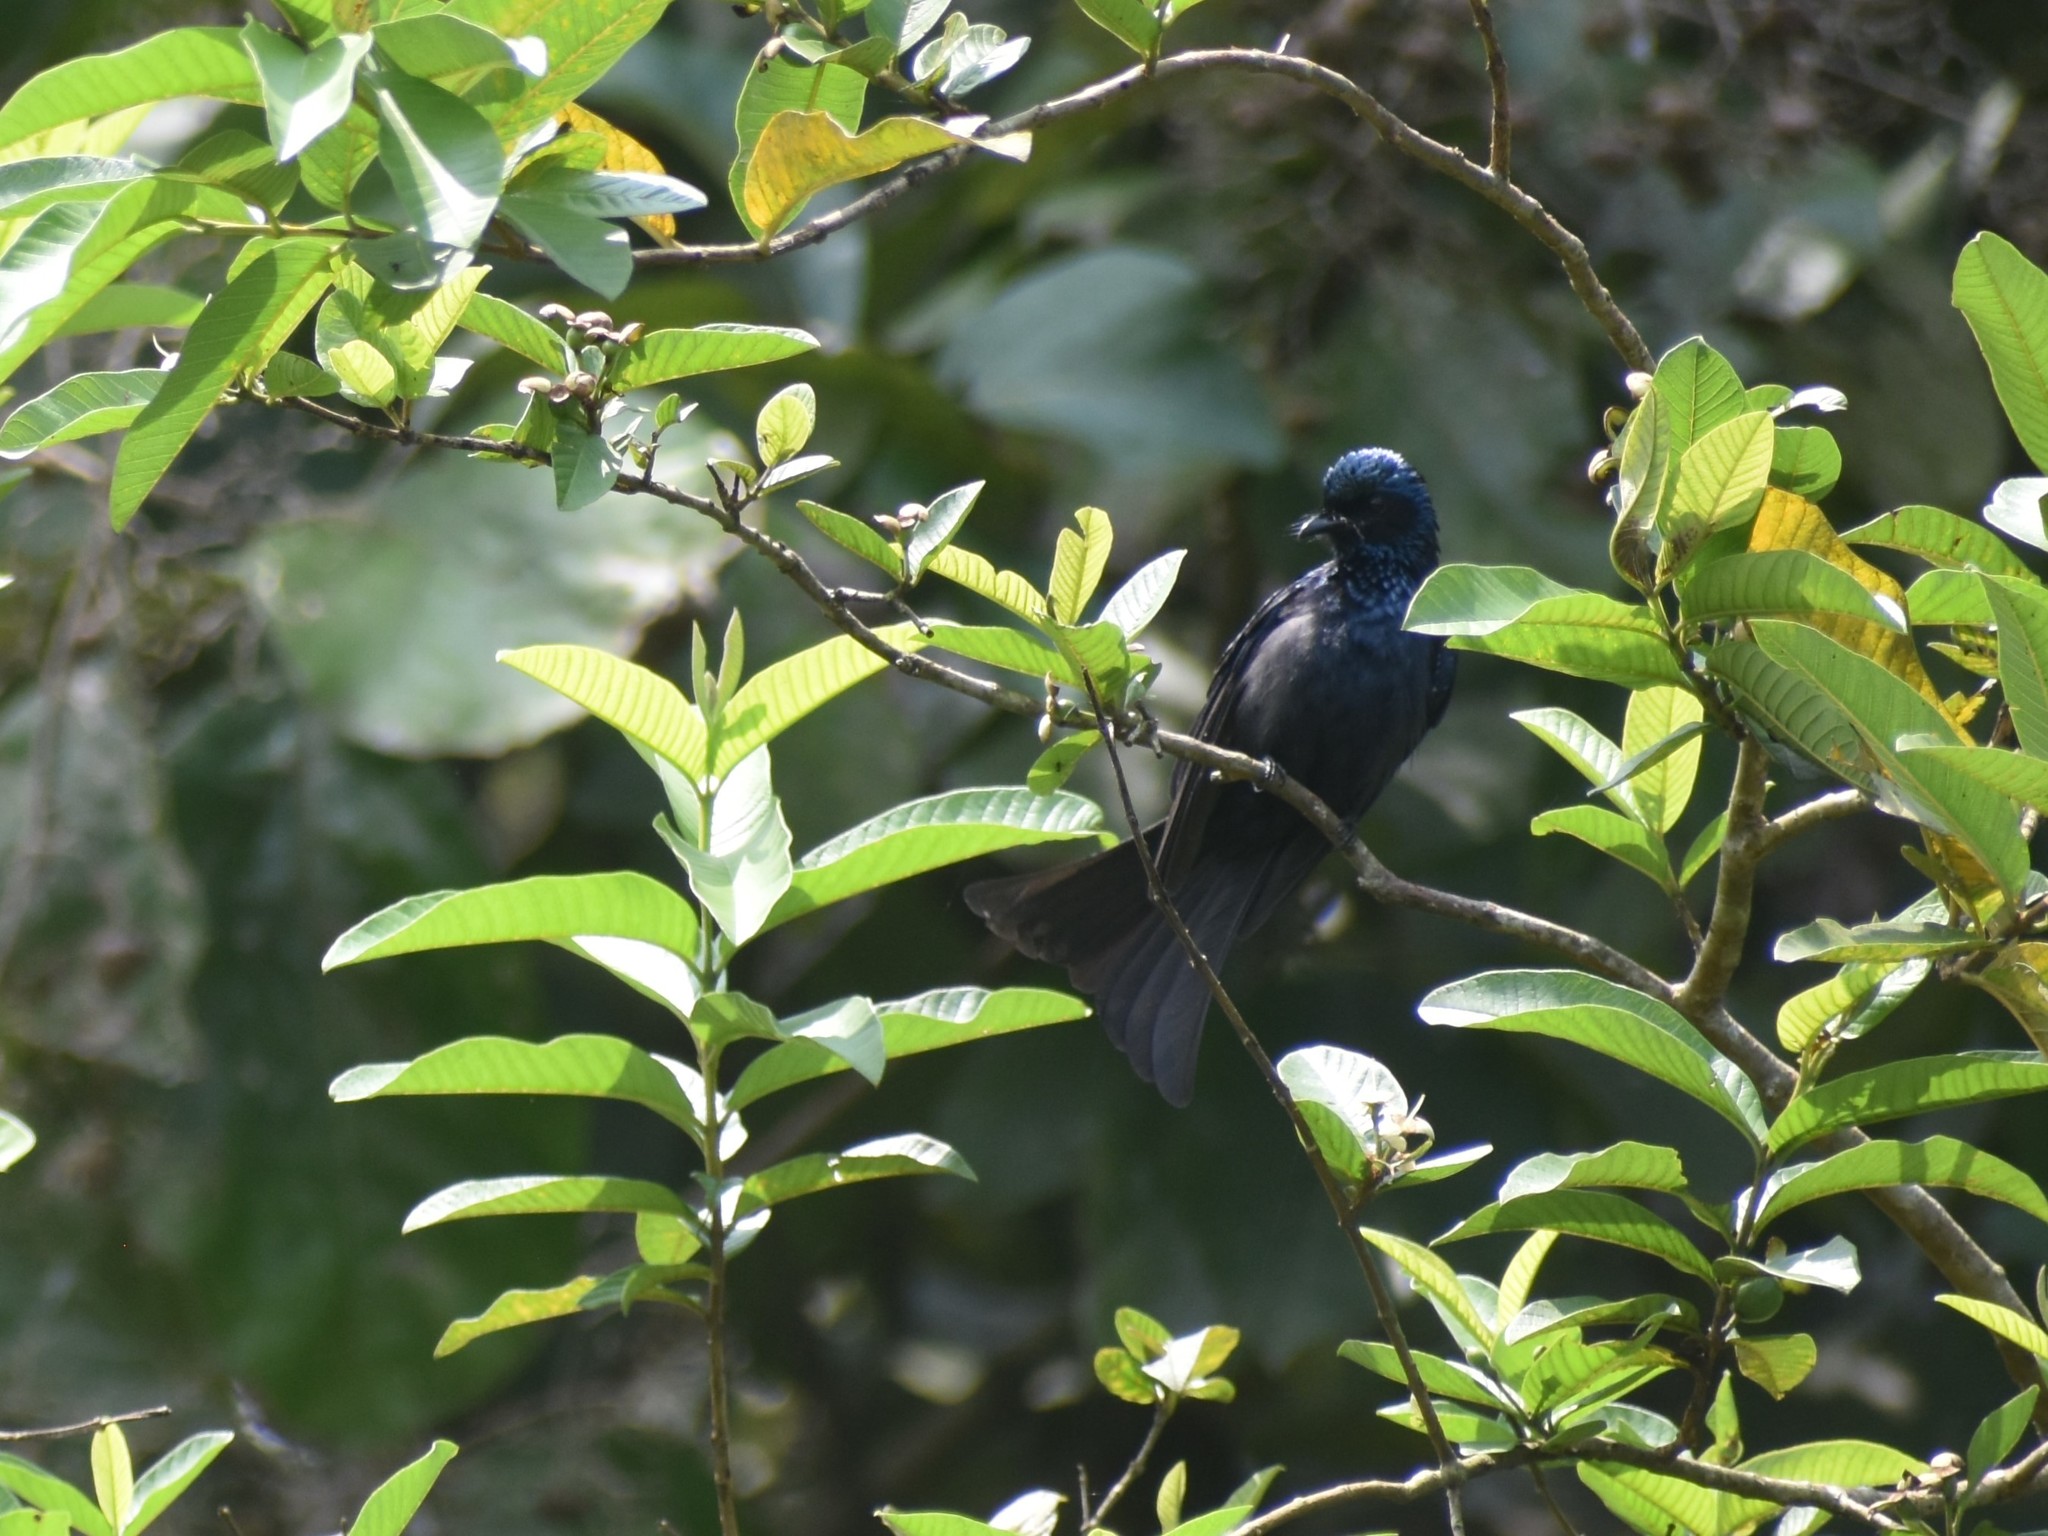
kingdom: Animalia
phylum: Chordata
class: Aves
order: Passeriformes
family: Dicruridae
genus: Dicrurus
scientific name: Dicrurus aeneus
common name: Bronzed drongo
